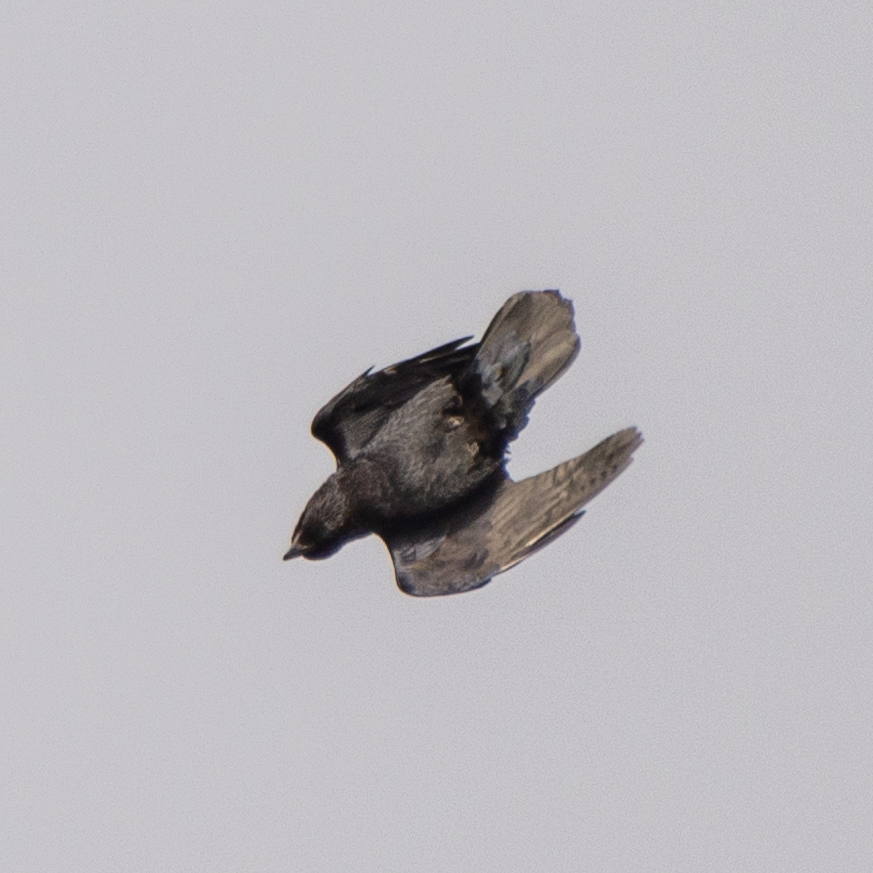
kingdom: Animalia
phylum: Chordata
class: Aves
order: Passeriformes
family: Corvidae
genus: Corvus
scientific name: Corvus corax
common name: Common raven
